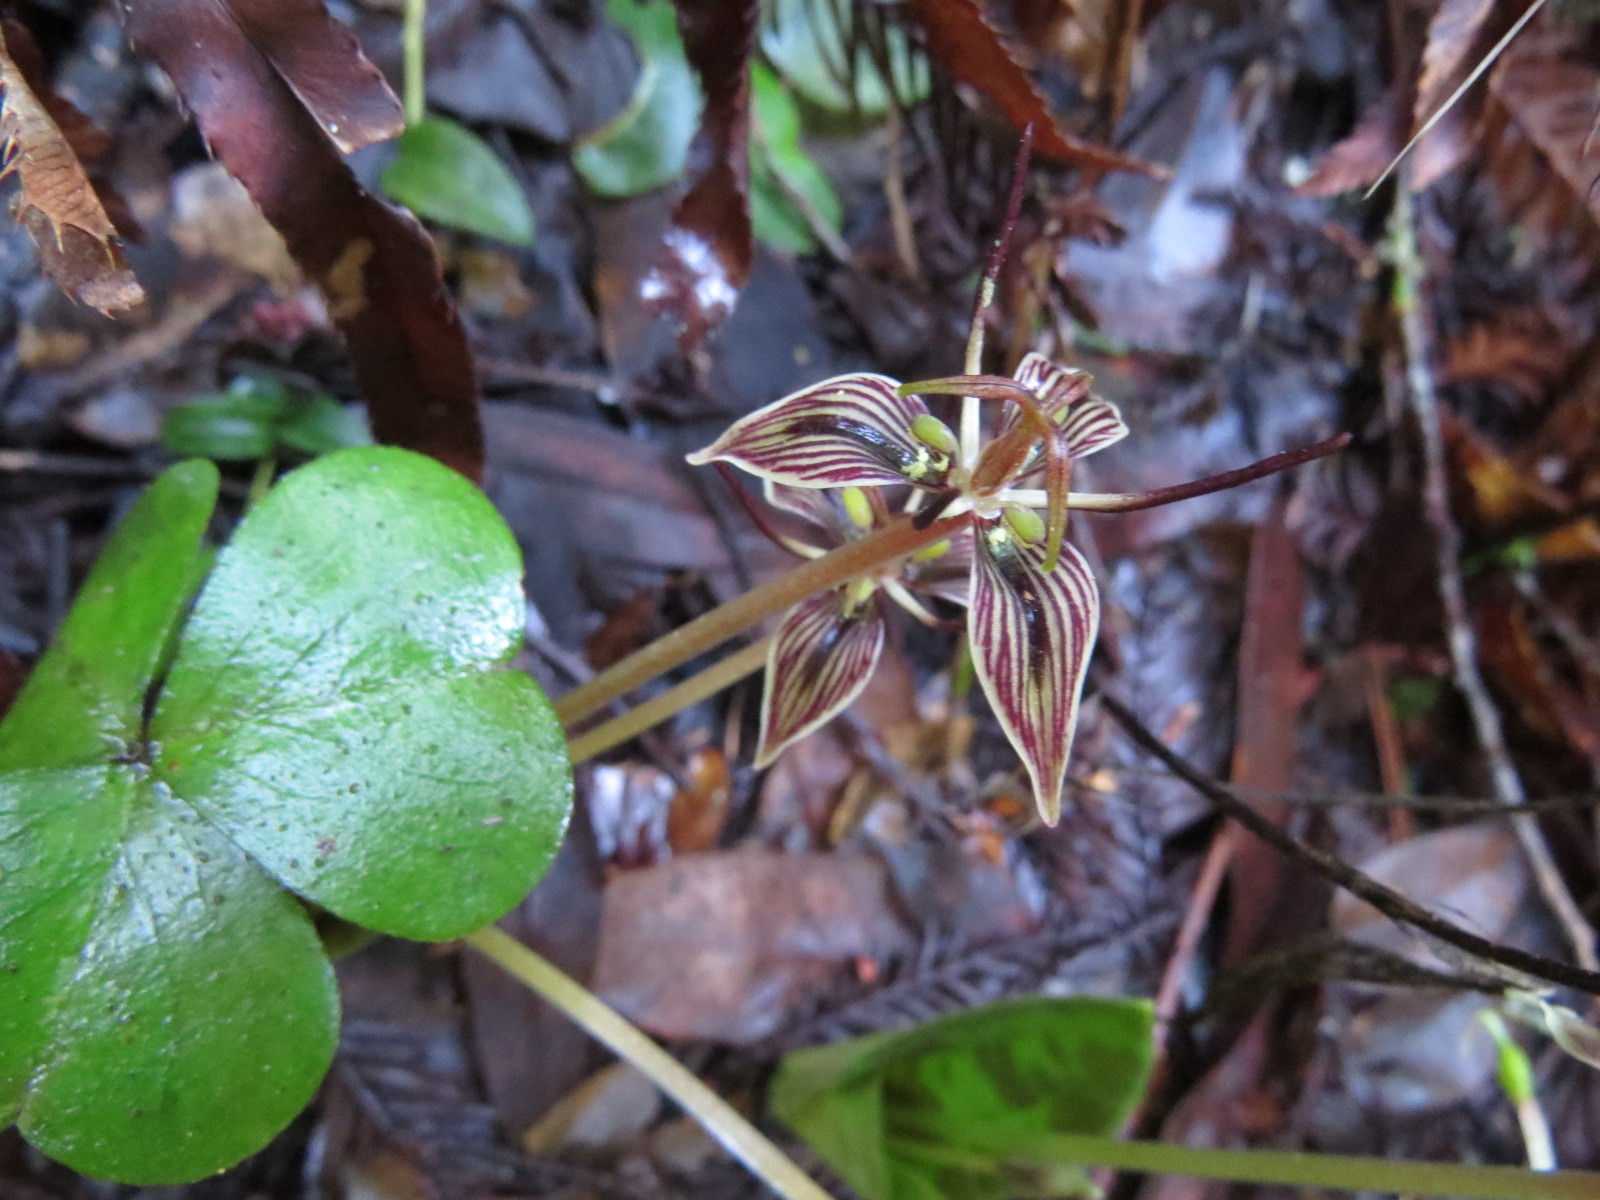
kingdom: Plantae
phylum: Tracheophyta
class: Liliopsida
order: Liliales
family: Liliaceae
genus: Scoliopus
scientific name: Scoliopus bigelovii
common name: Foetid adder's-tongue
